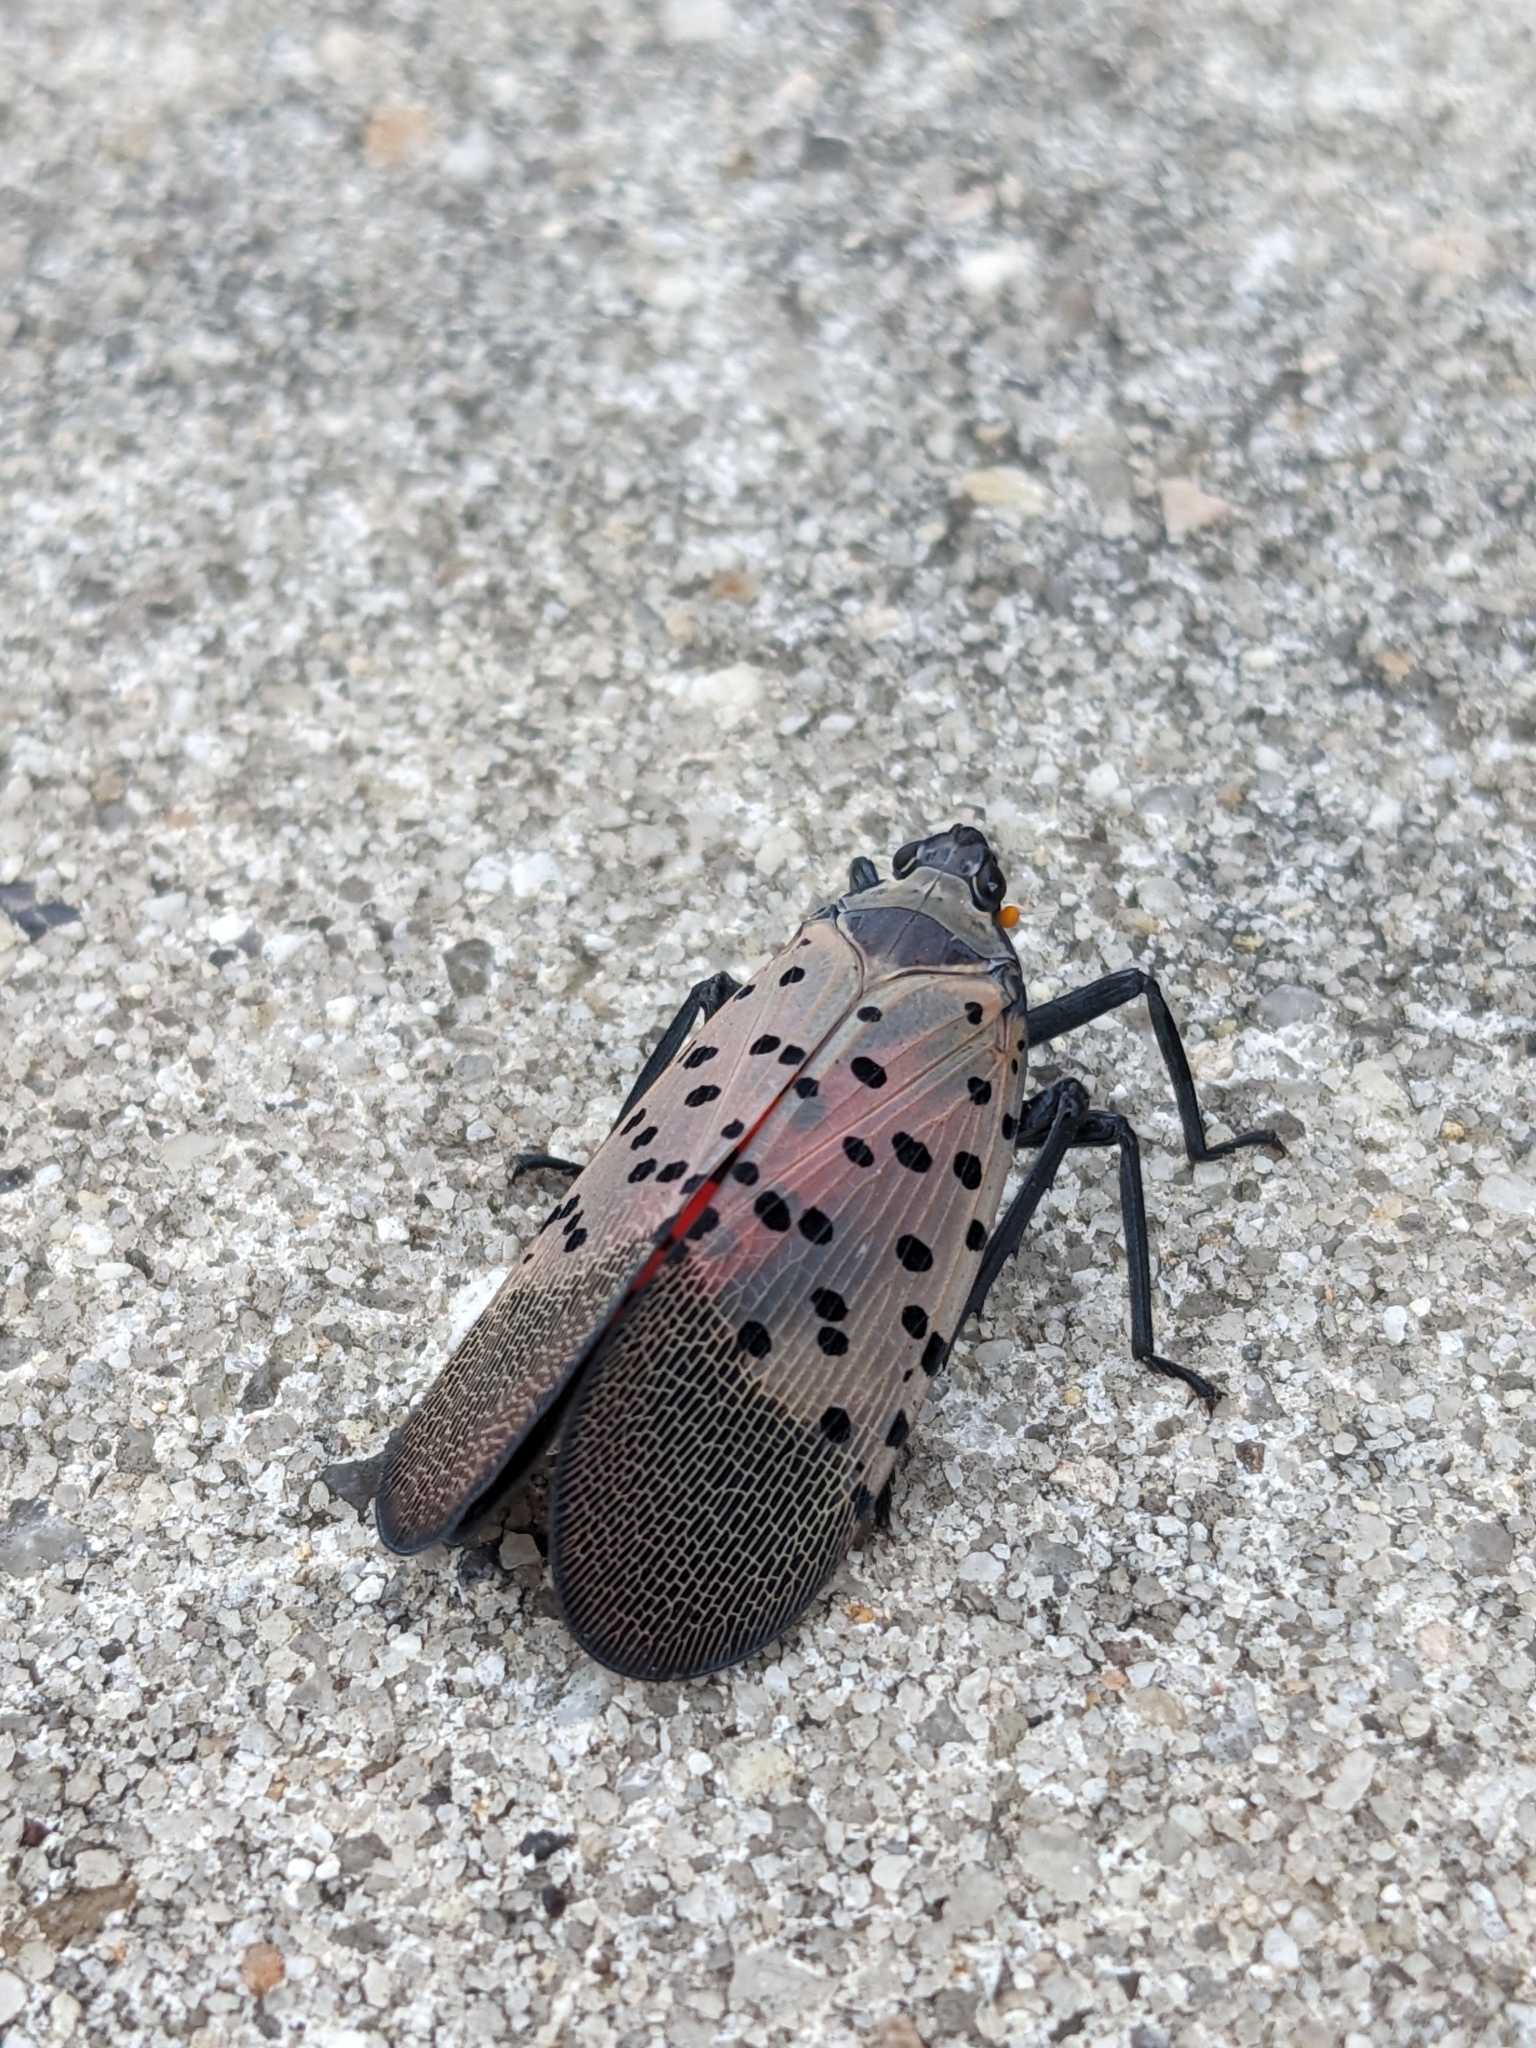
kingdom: Animalia
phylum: Arthropoda
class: Insecta
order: Hemiptera
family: Fulgoridae
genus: Lycorma
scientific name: Lycorma delicatula
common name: Spotted lanternfly
